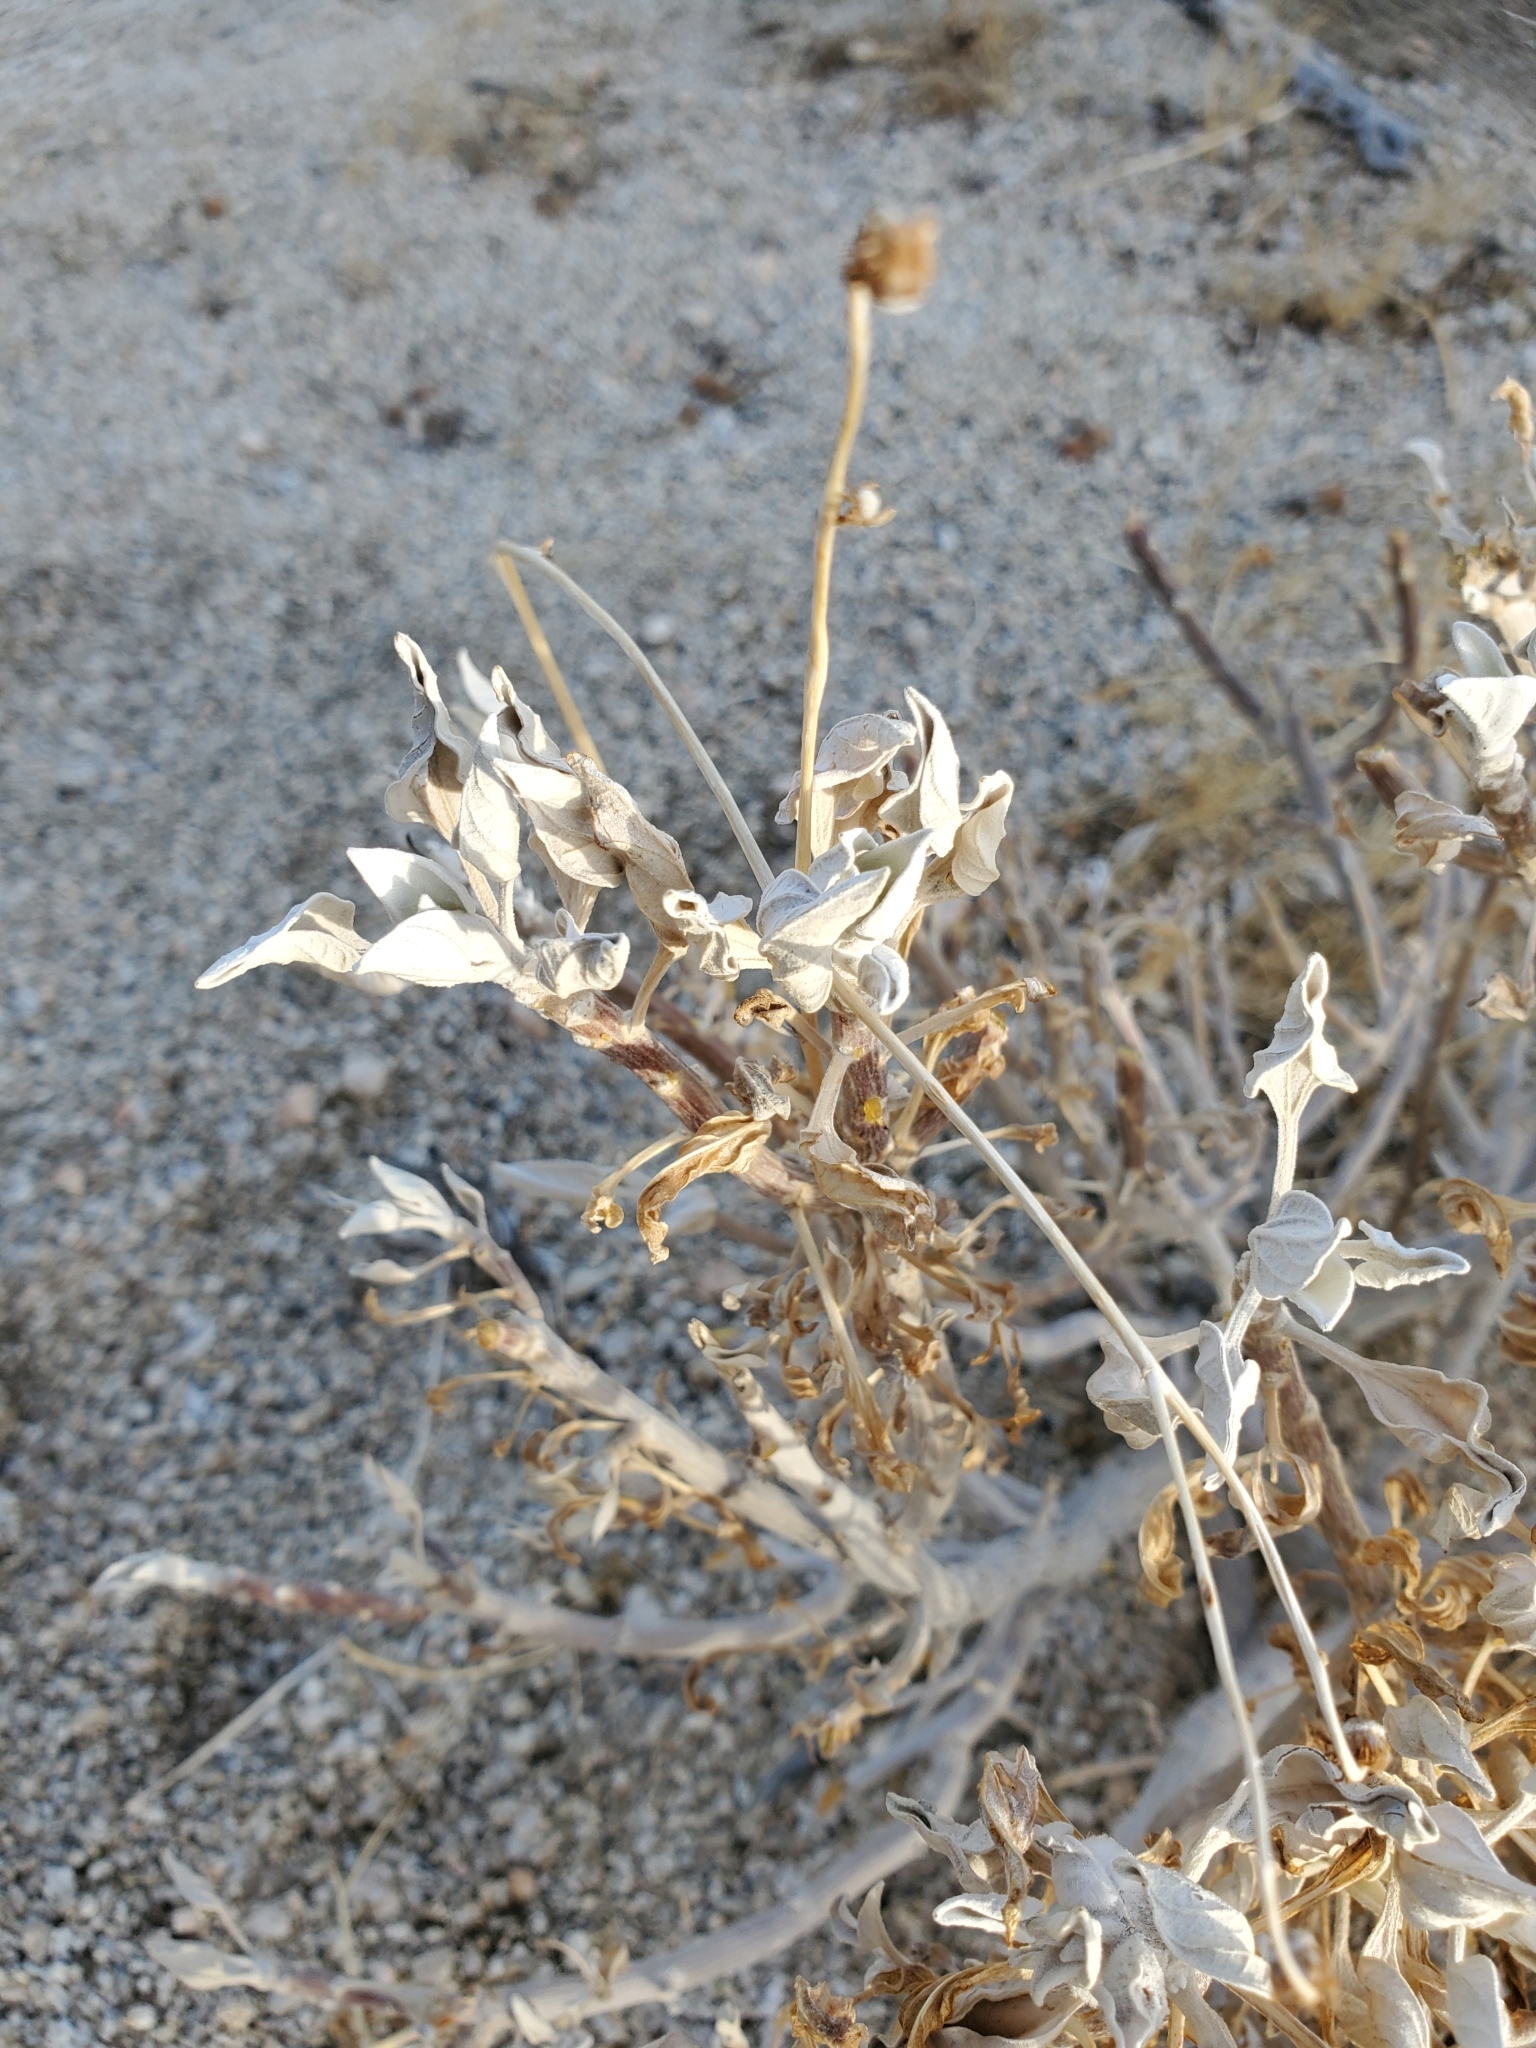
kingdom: Plantae
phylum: Tracheophyta
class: Magnoliopsida
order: Asterales
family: Asteraceae
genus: Encelia
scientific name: Encelia farinosa
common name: Brittlebush
